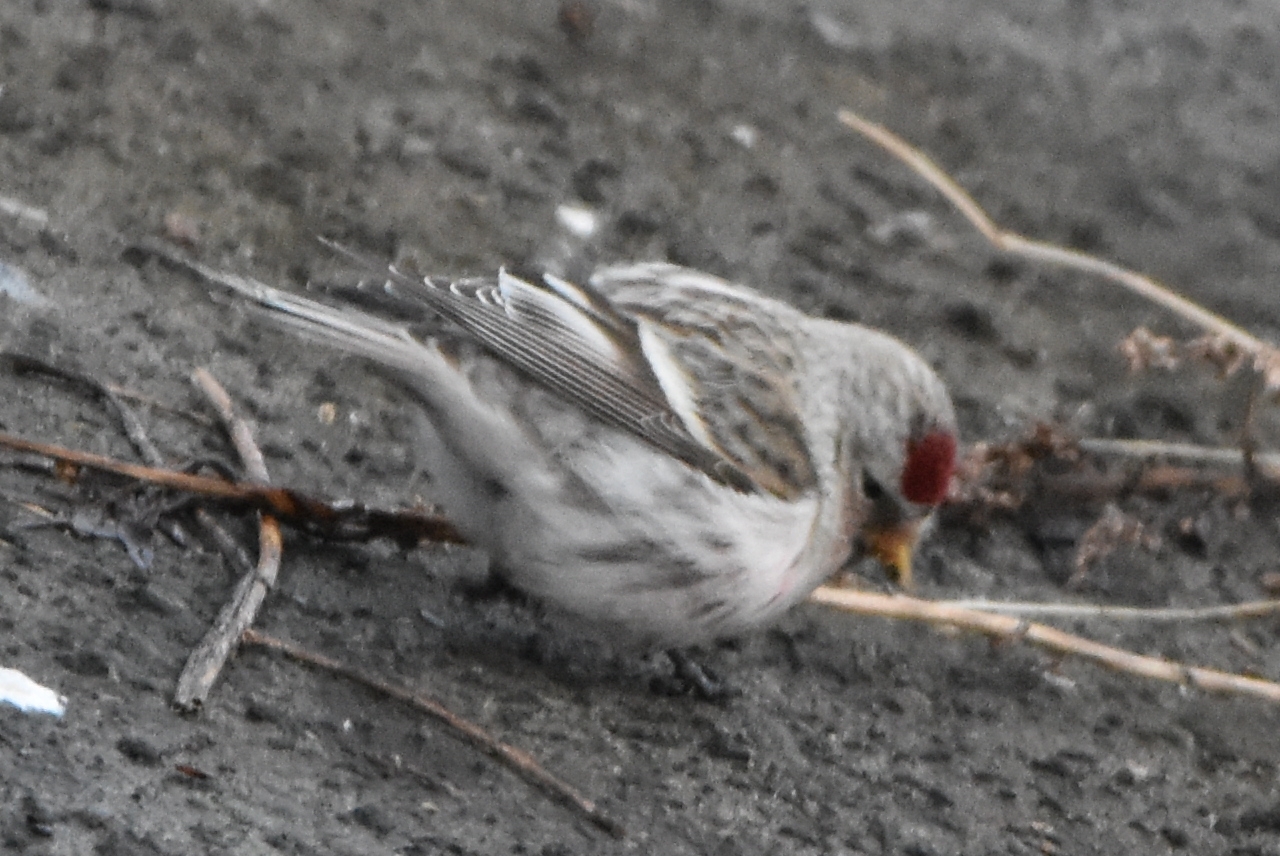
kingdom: Animalia
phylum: Chordata
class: Aves
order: Passeriformes
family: Fringillidae
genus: Acanthis
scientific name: Acanthis flammea
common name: Common redpoll
